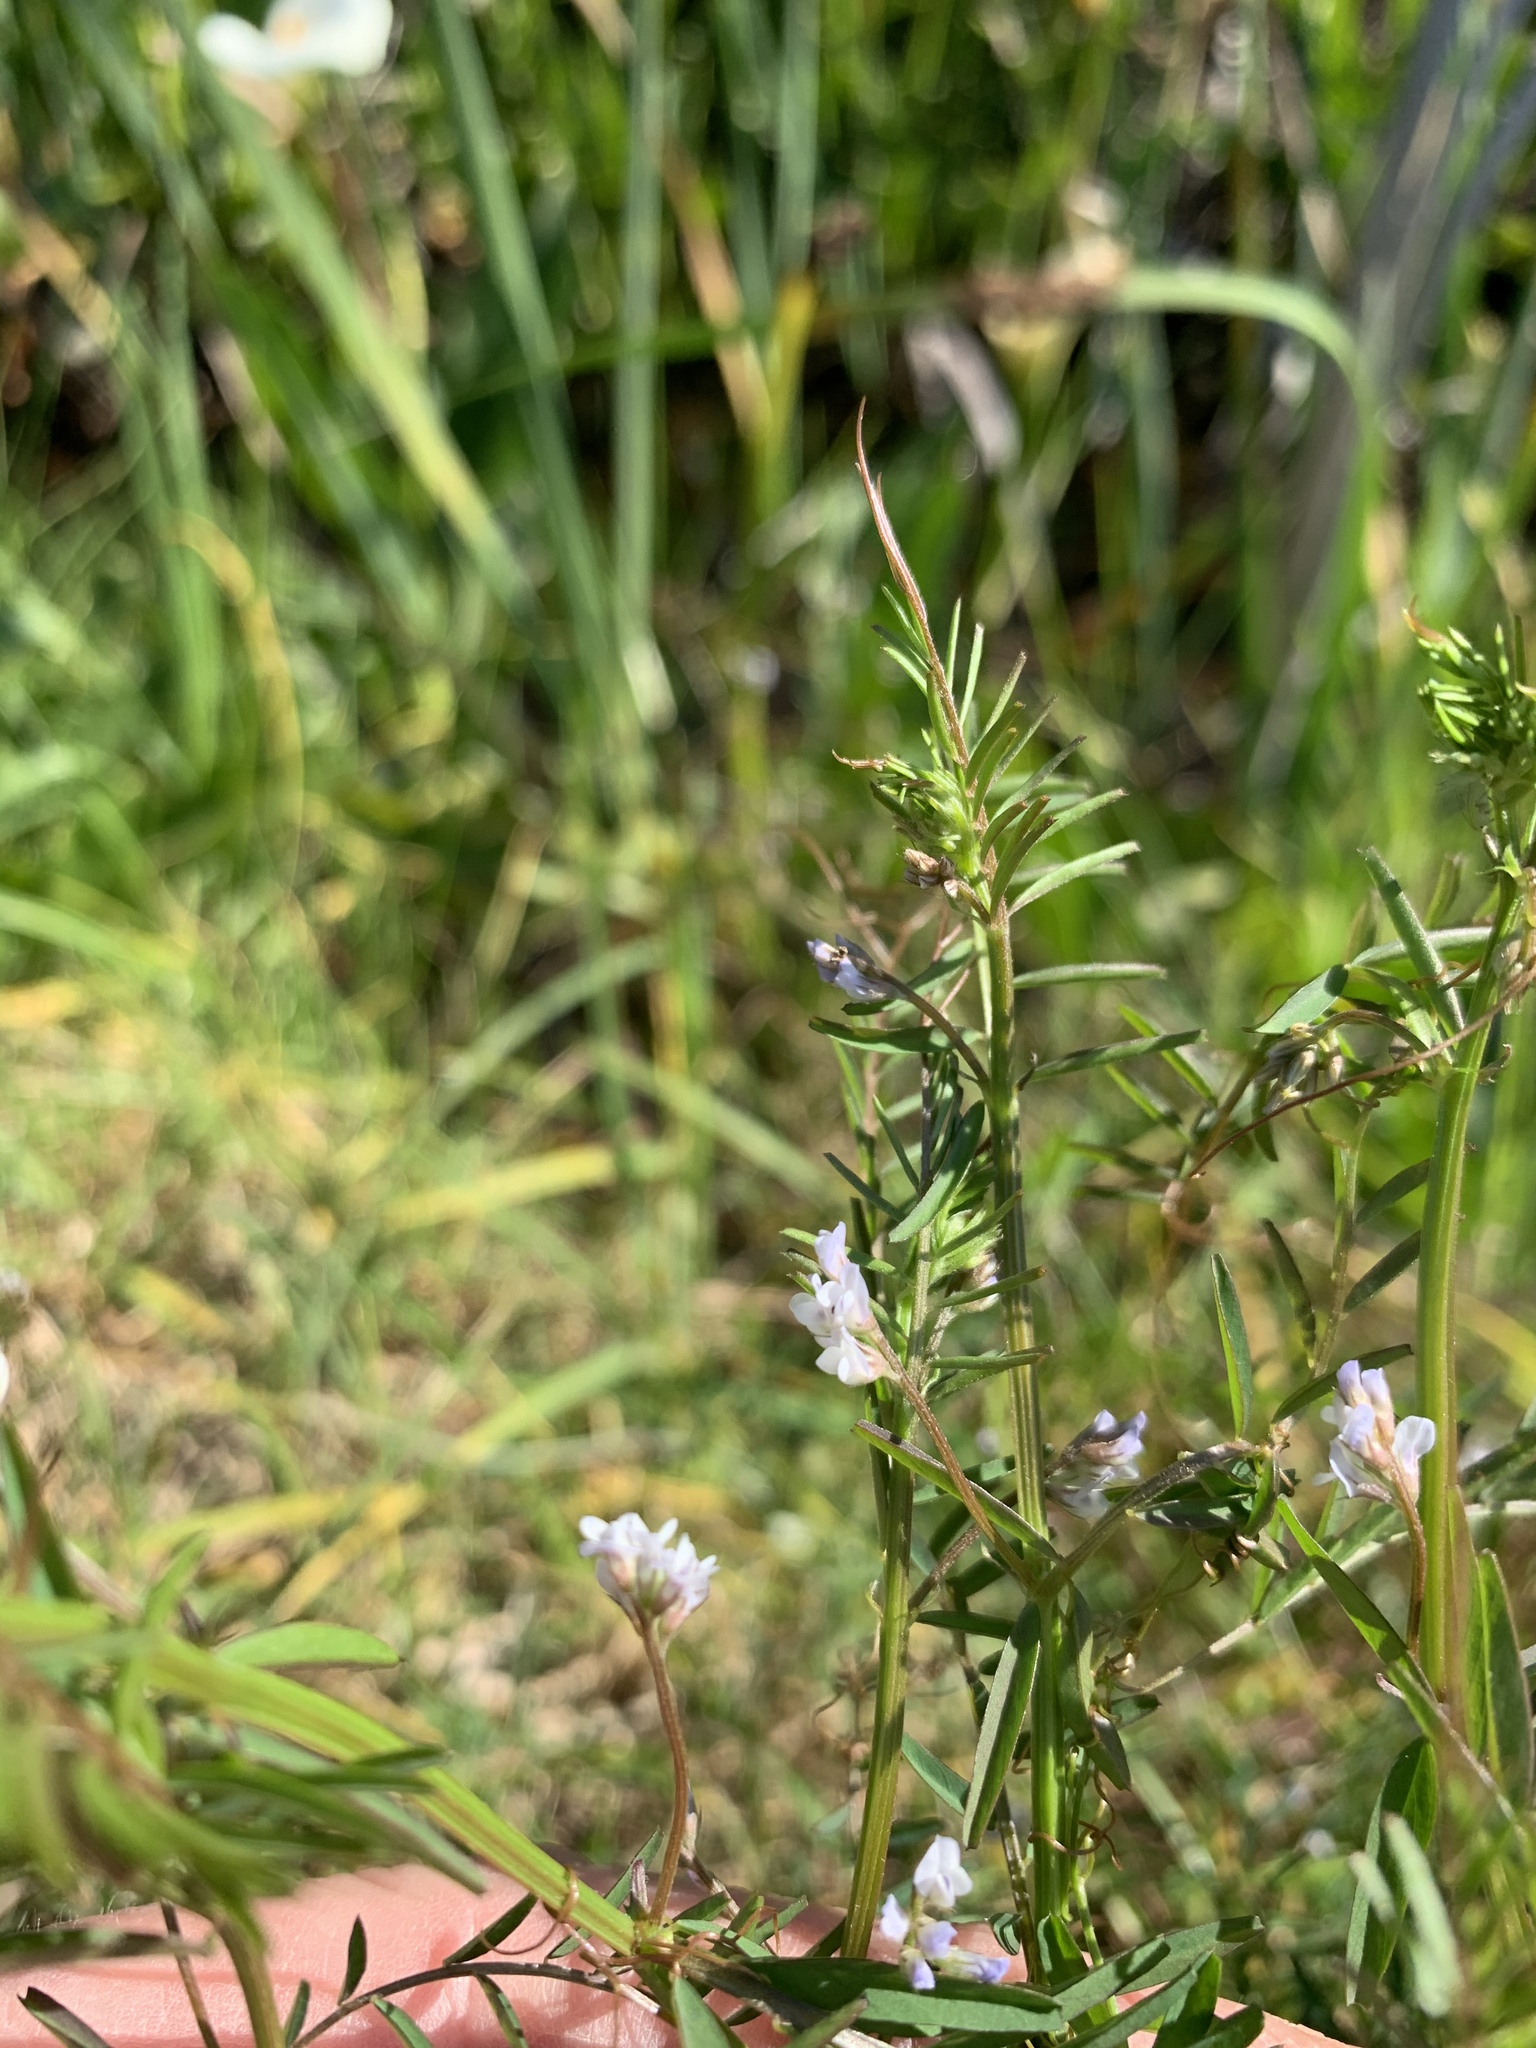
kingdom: Plantae
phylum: Tracheophyta
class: Magnoliopsida
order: Fabales
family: Fabaceae
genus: Vicia
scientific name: Vicia hirsuta
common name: Tiny vetch
